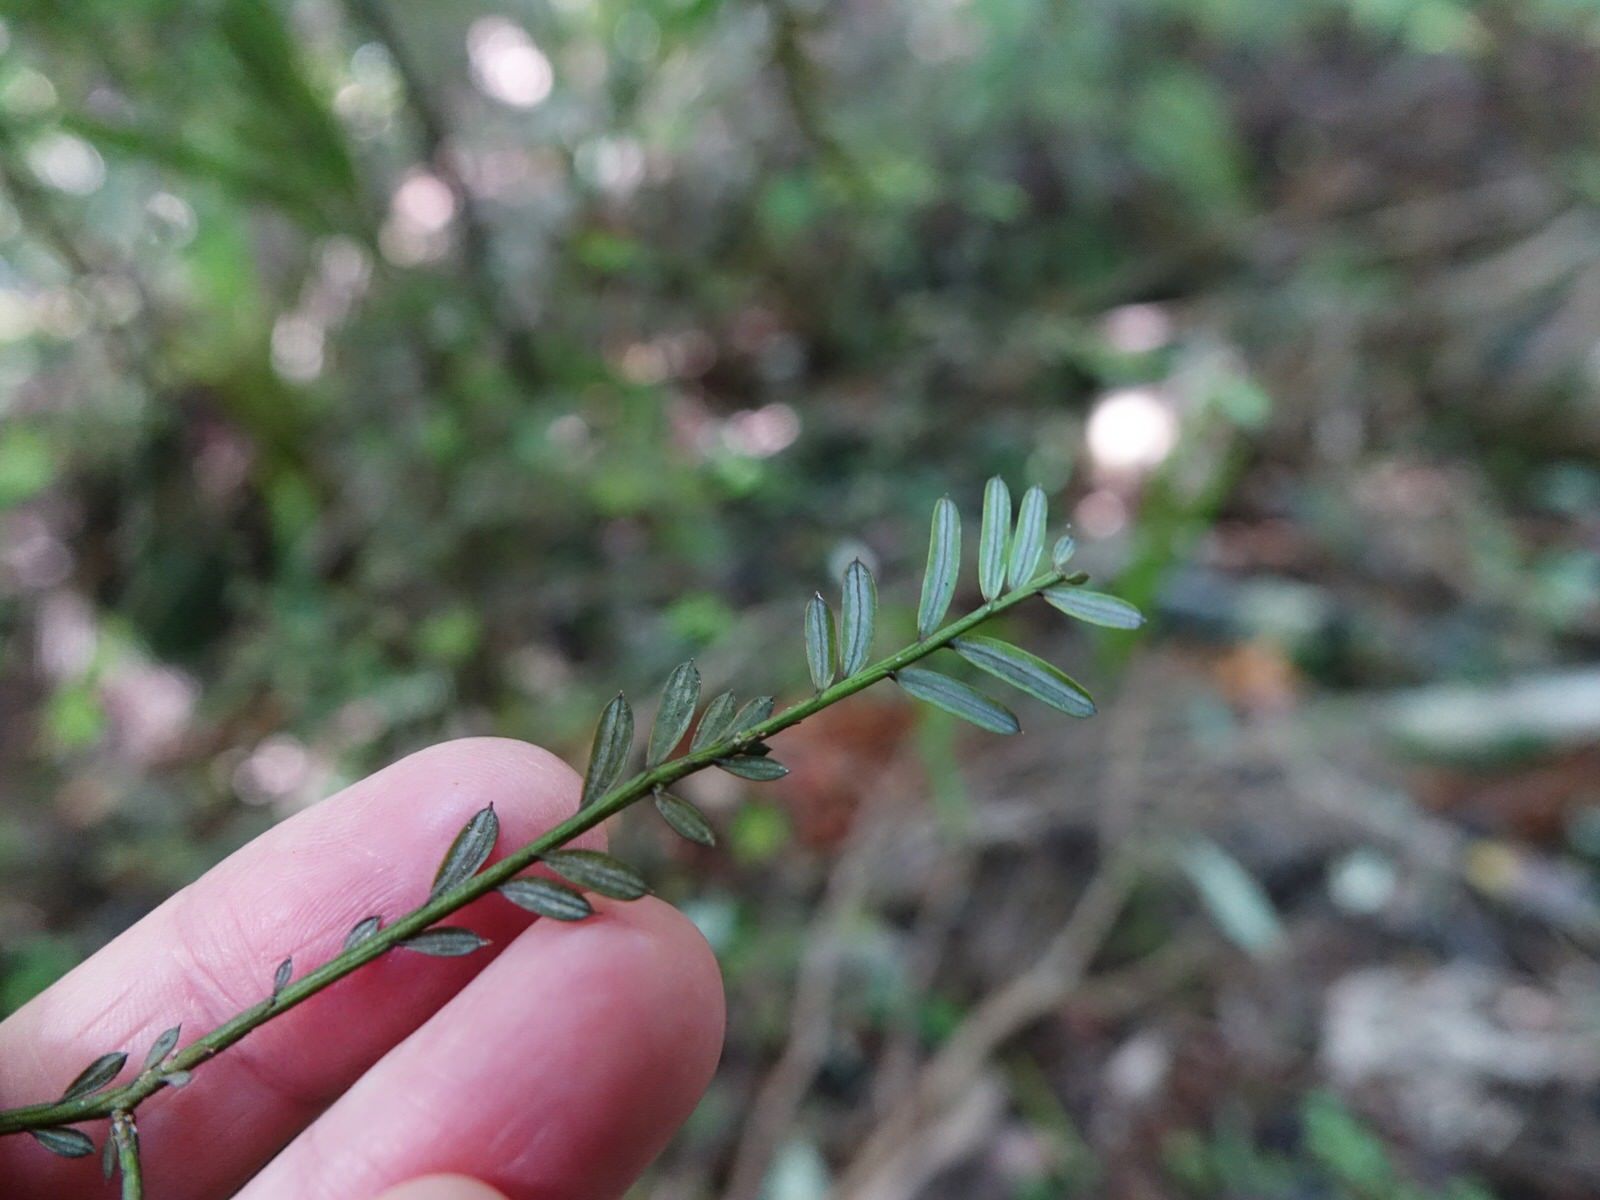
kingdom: Plantae
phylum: Tracheophyta
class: Pinopsida
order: Pinales
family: Podocarpaceae
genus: Prumnopitys
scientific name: Prumnopitys taxifolia
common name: Matai
